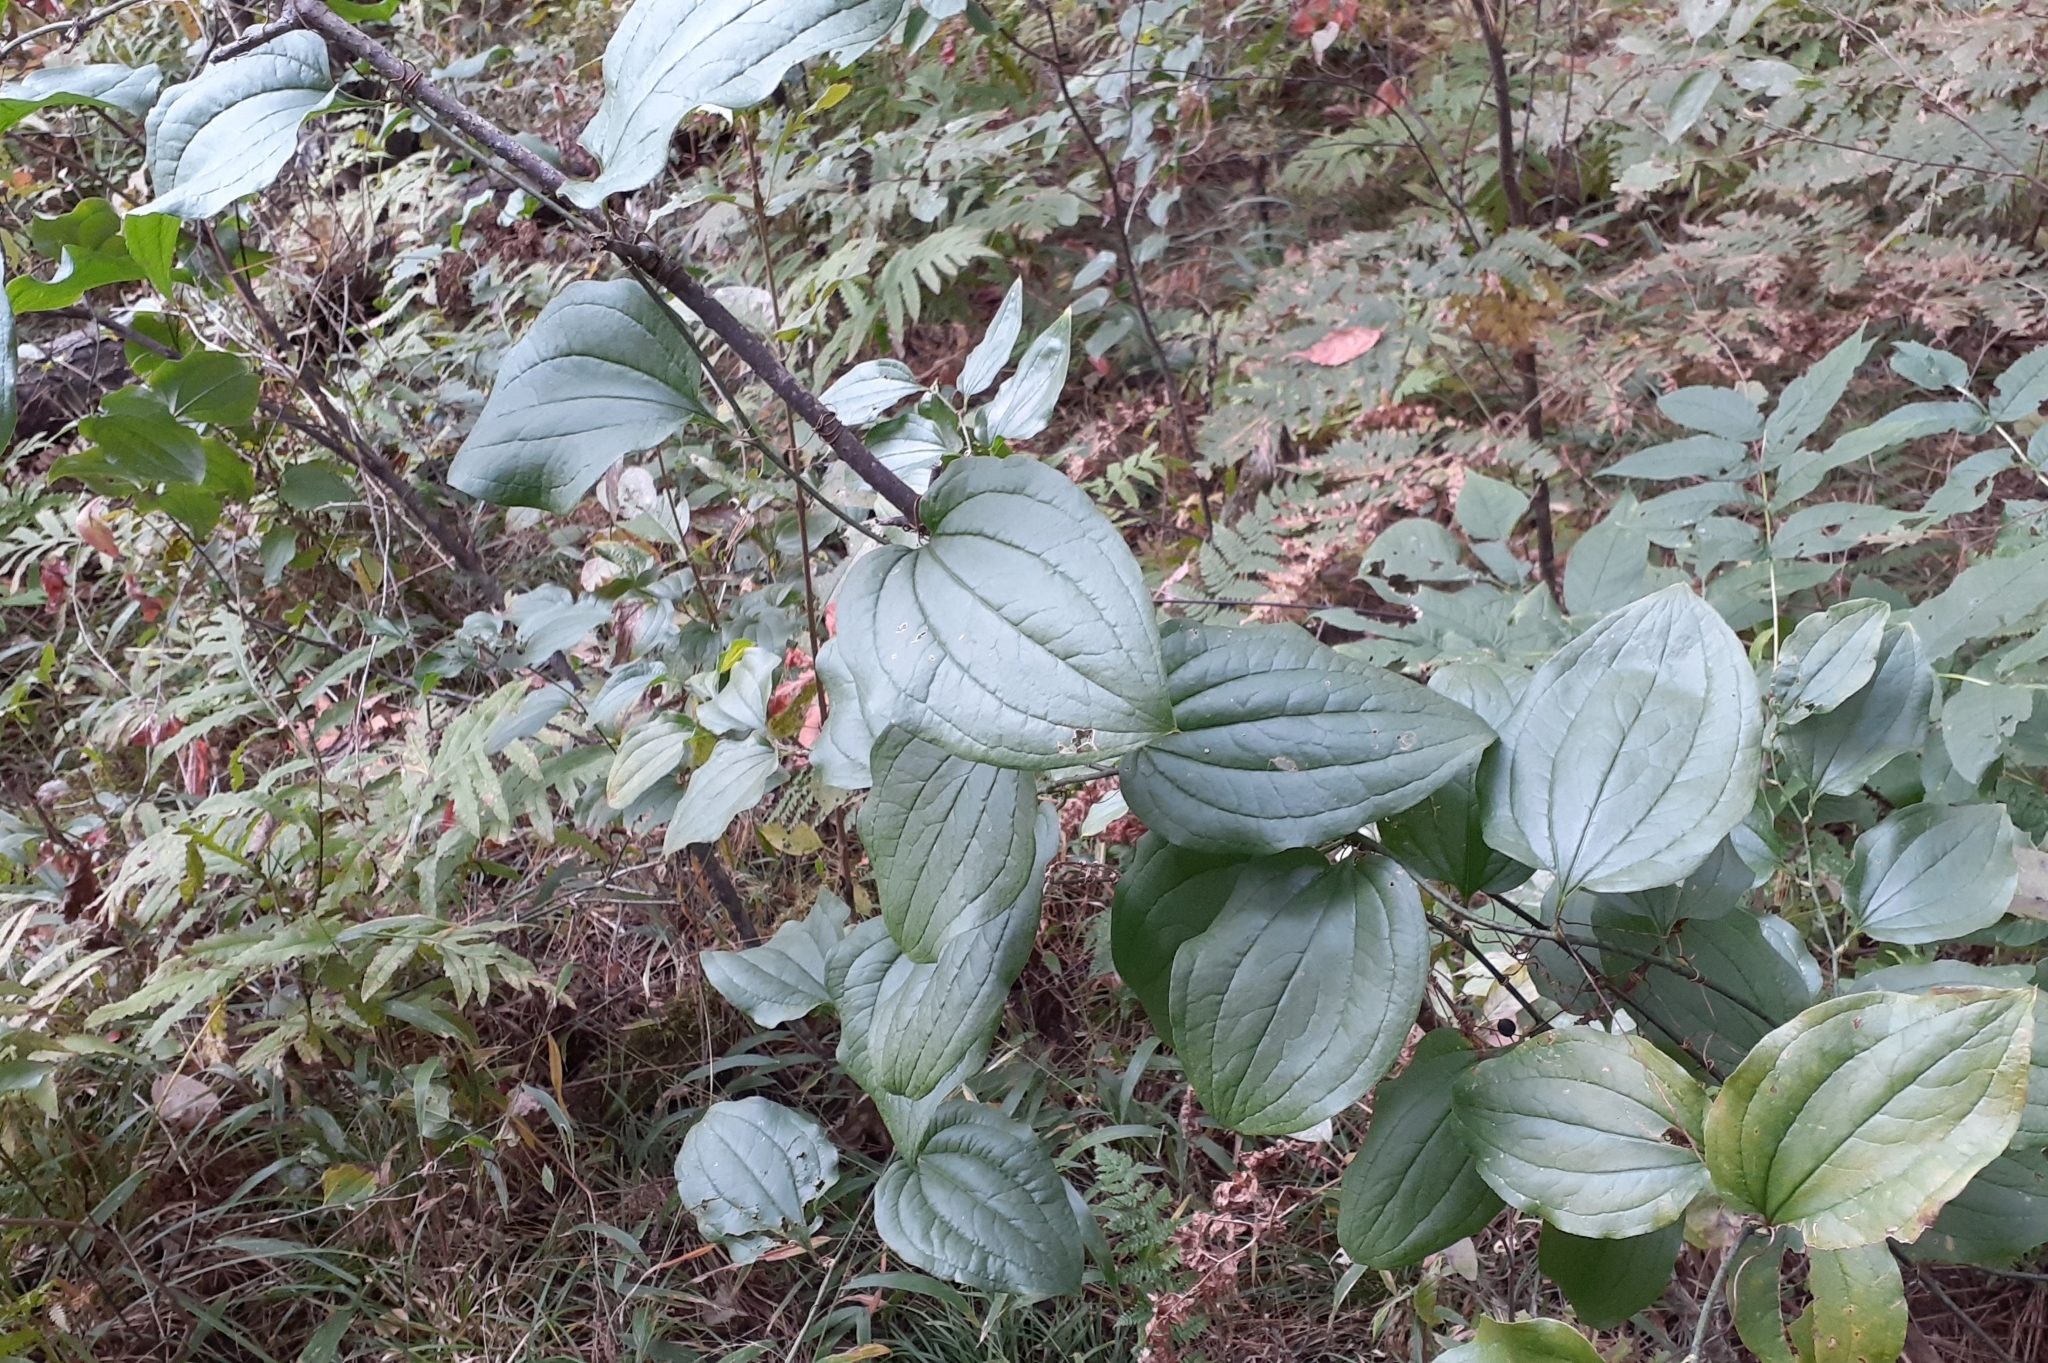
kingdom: Plantae
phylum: Tracheophyta
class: Liliopsida
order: Liliales
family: Smilacaceae
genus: Smilax
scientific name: Smilax tamnoides
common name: Hellfetter
